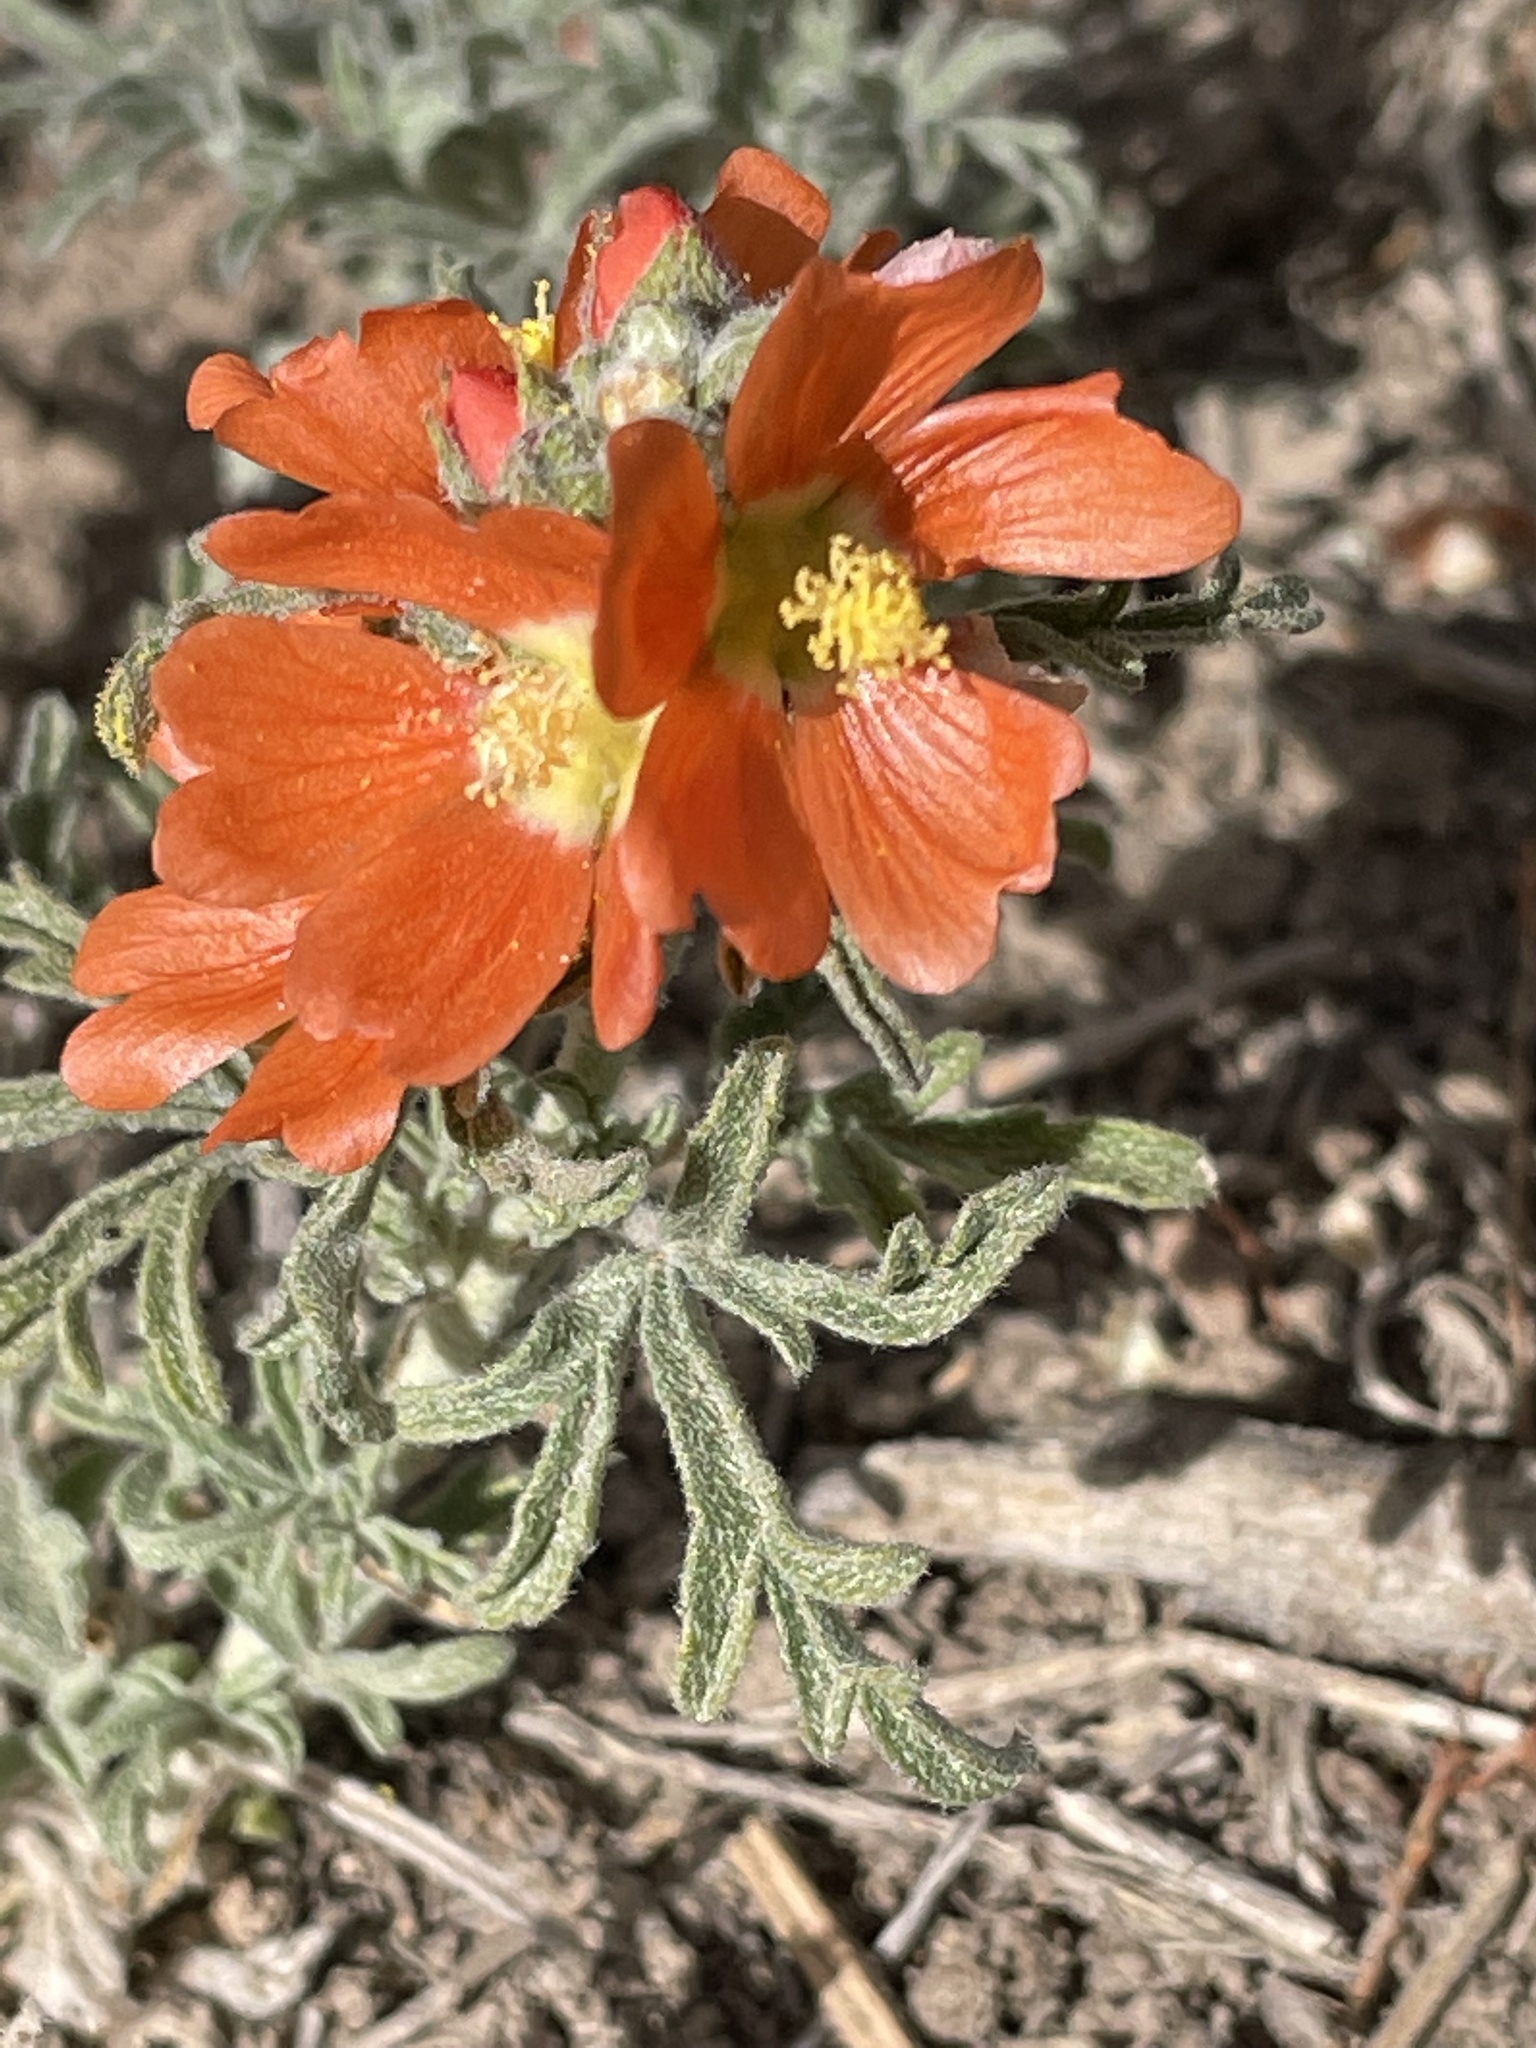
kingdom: Plantae
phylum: Tracheophyta
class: Magnoliopsida
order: Malvales
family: Malvaceae
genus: Sphaeralcea
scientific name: Sphaeralcea coccinea
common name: Moss-rose
